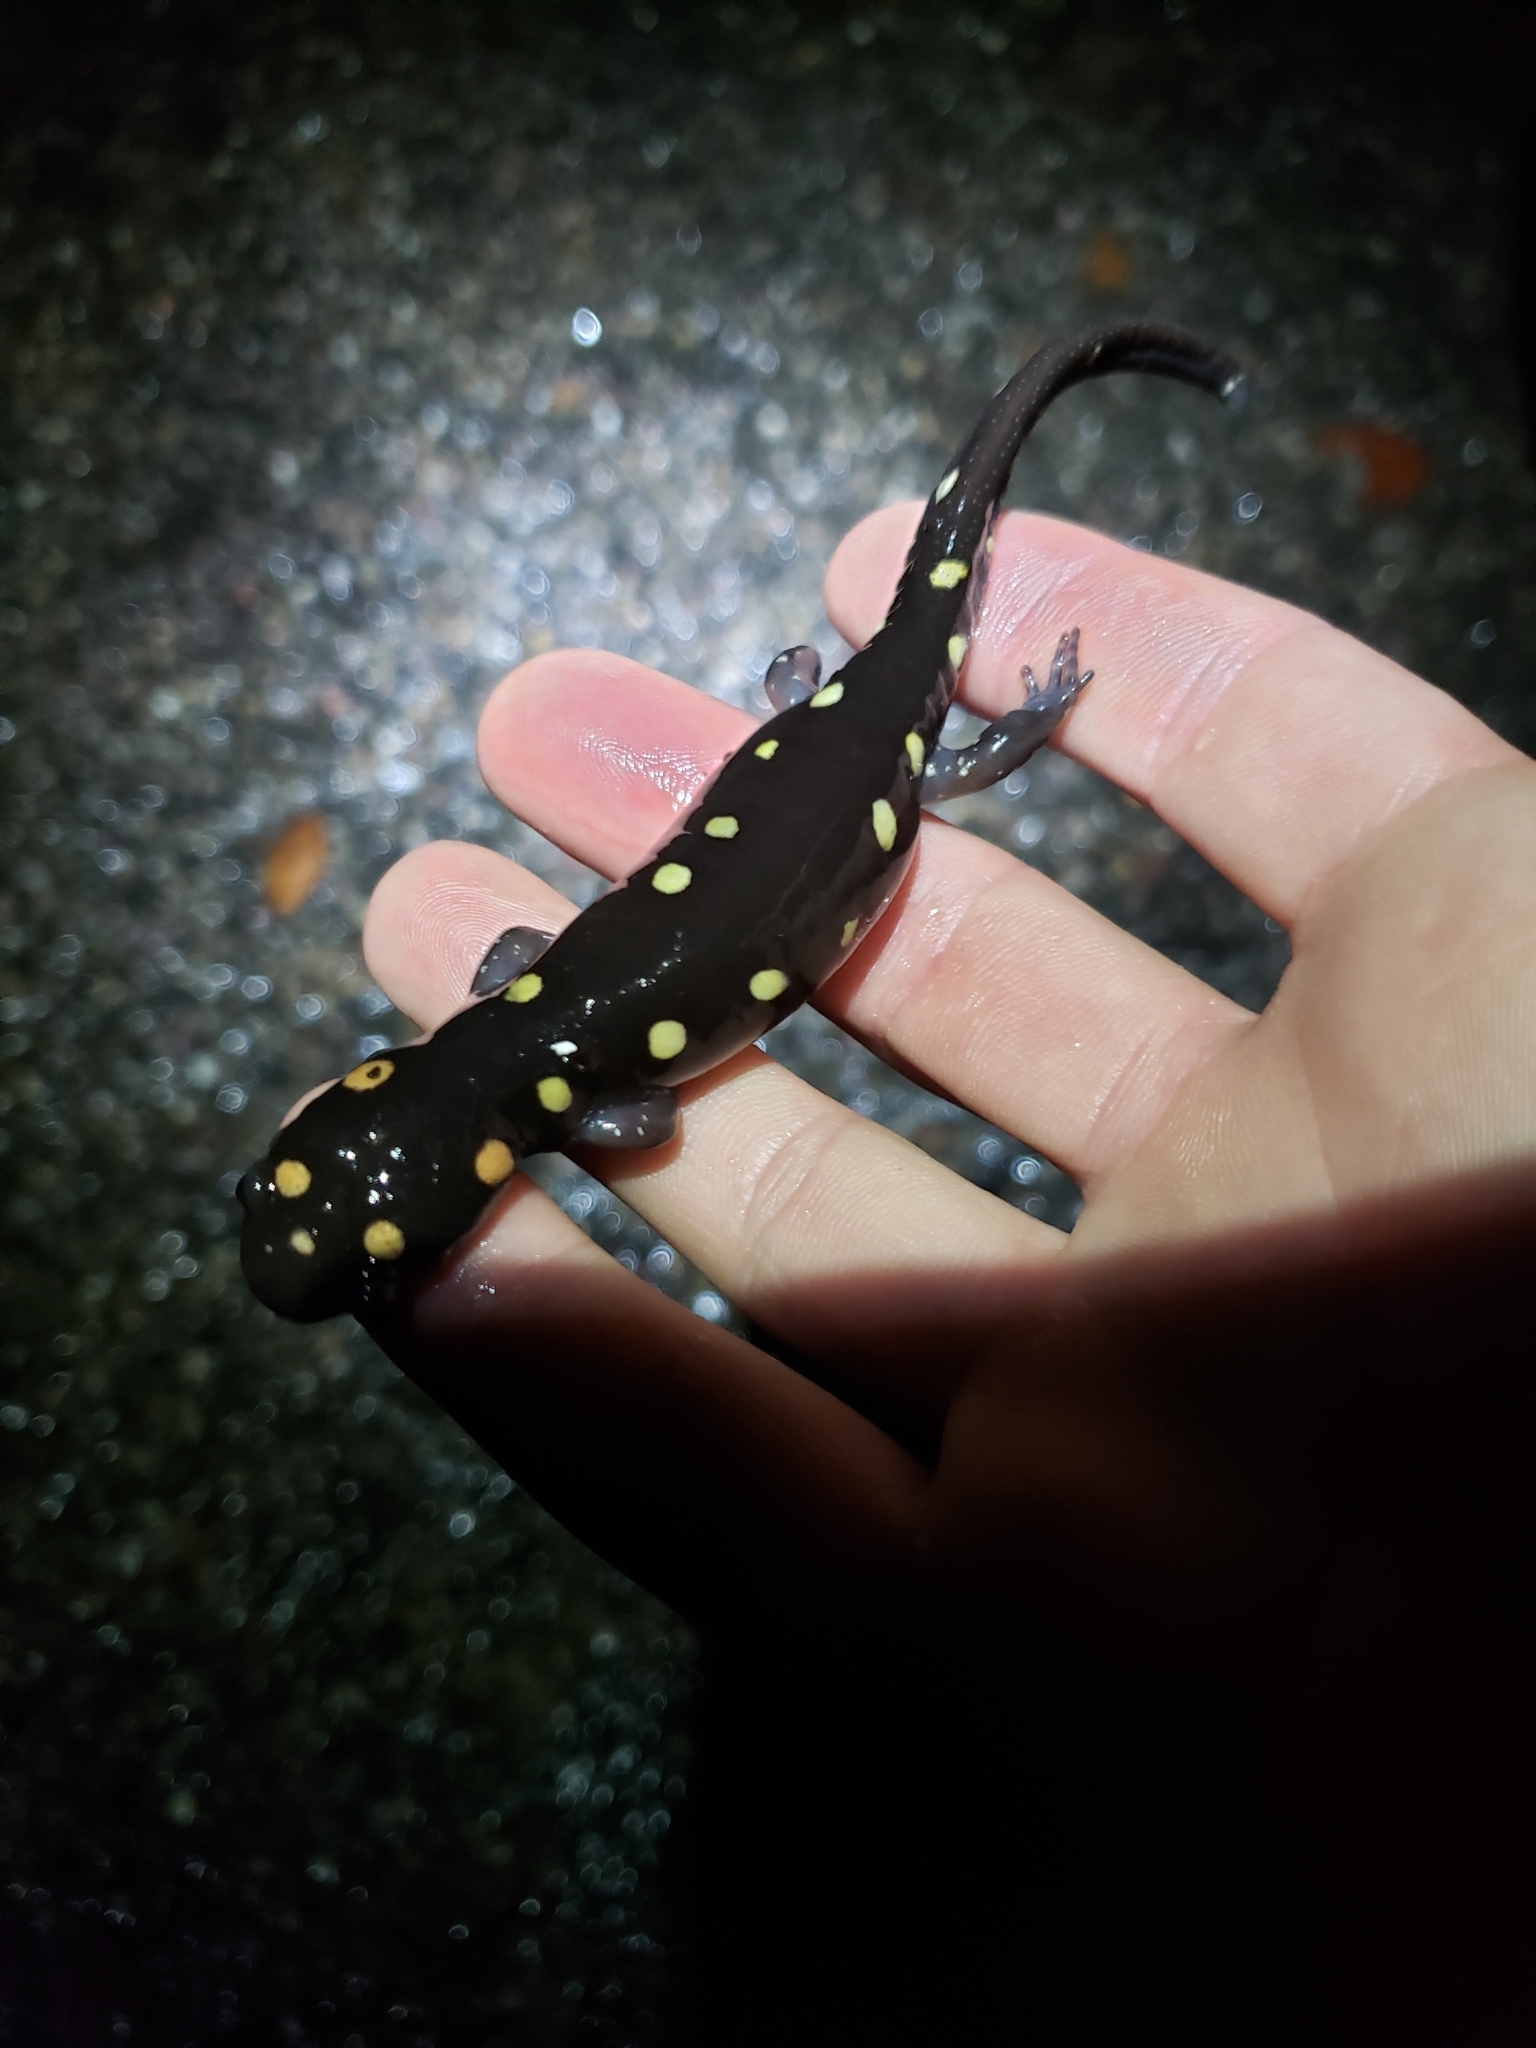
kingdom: Animalia
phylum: Chordata
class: Amphibia
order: Caudata
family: Ambystomatidae
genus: Ambystoma
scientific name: Ambystoma maculatum
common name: Spotted salamander
